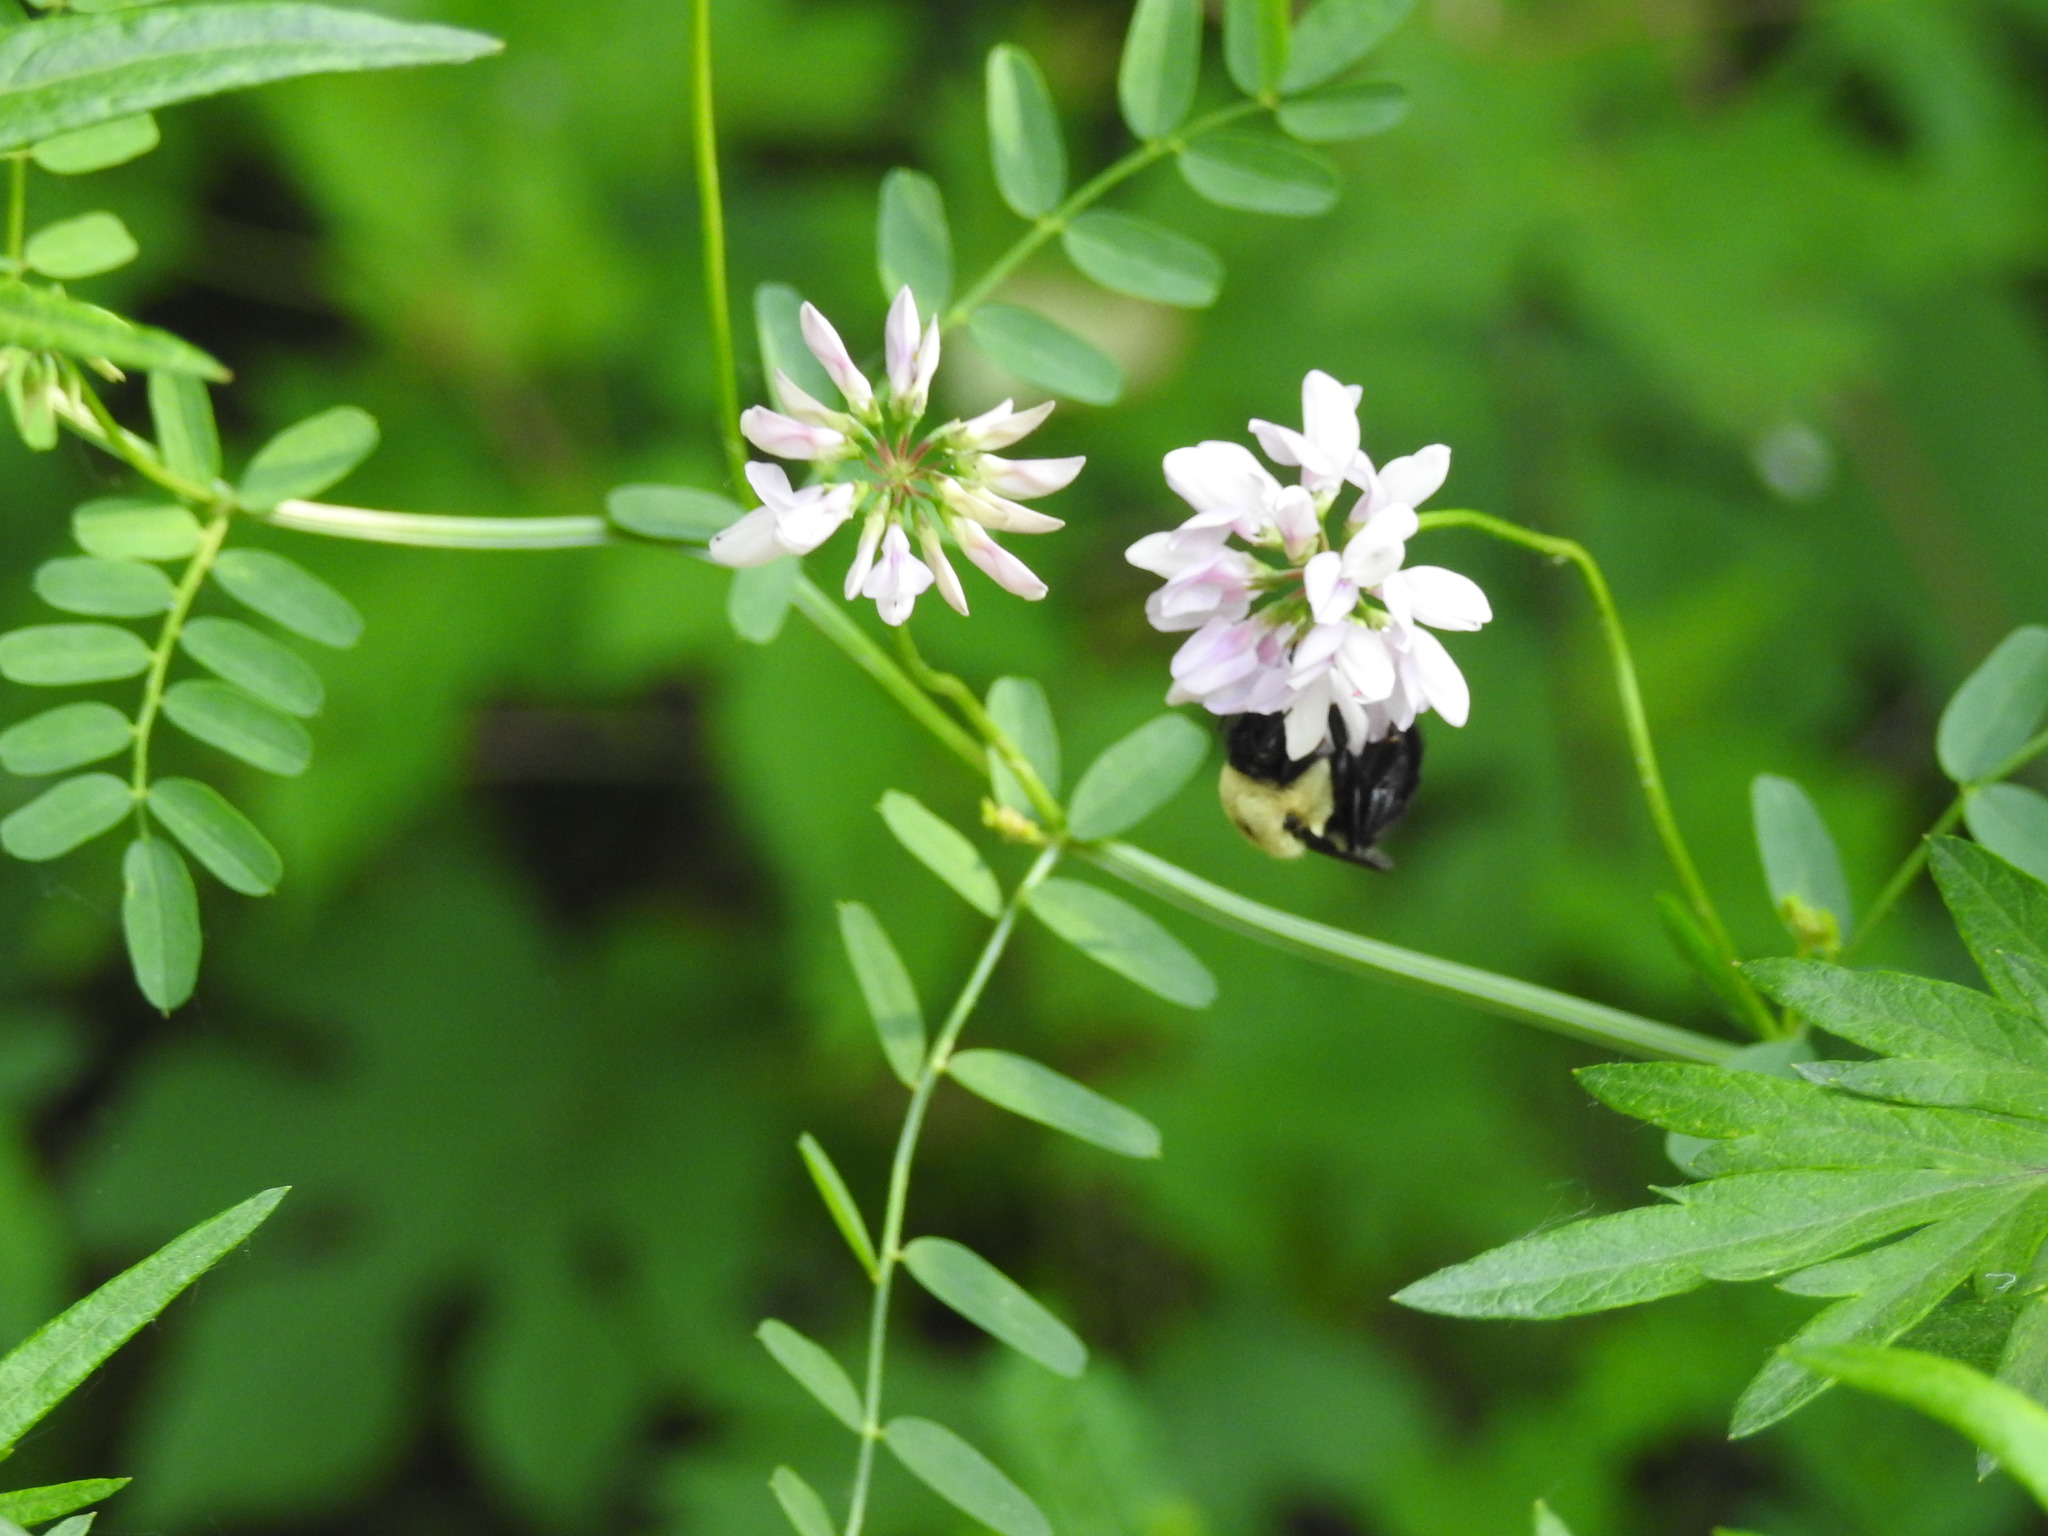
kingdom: Animalia
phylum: Arthropoda
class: Insecta
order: Hymenoptera
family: Apidae
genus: Bombus
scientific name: Bombus griseocollis
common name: Brown-belted bumble bee
